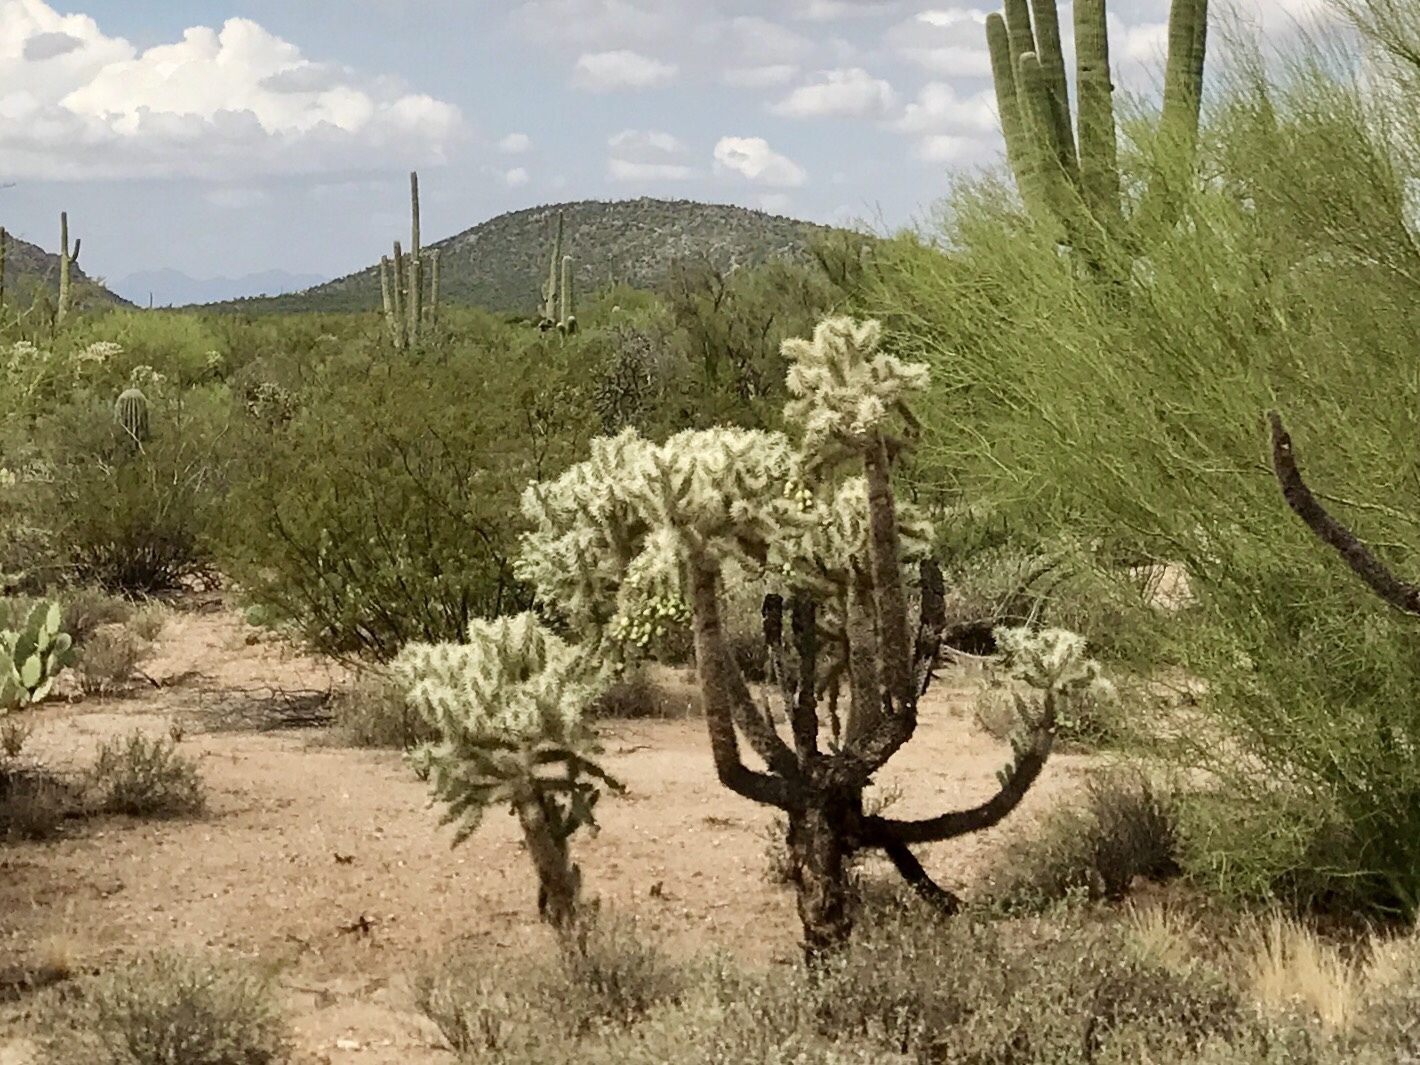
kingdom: Plantae
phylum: Tracheophyta
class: Magnoliopsida
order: Caryophyllales
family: Cactaceae
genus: Cylindropuntia
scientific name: Cylindropuntia fulgida
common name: Jumping cholla
